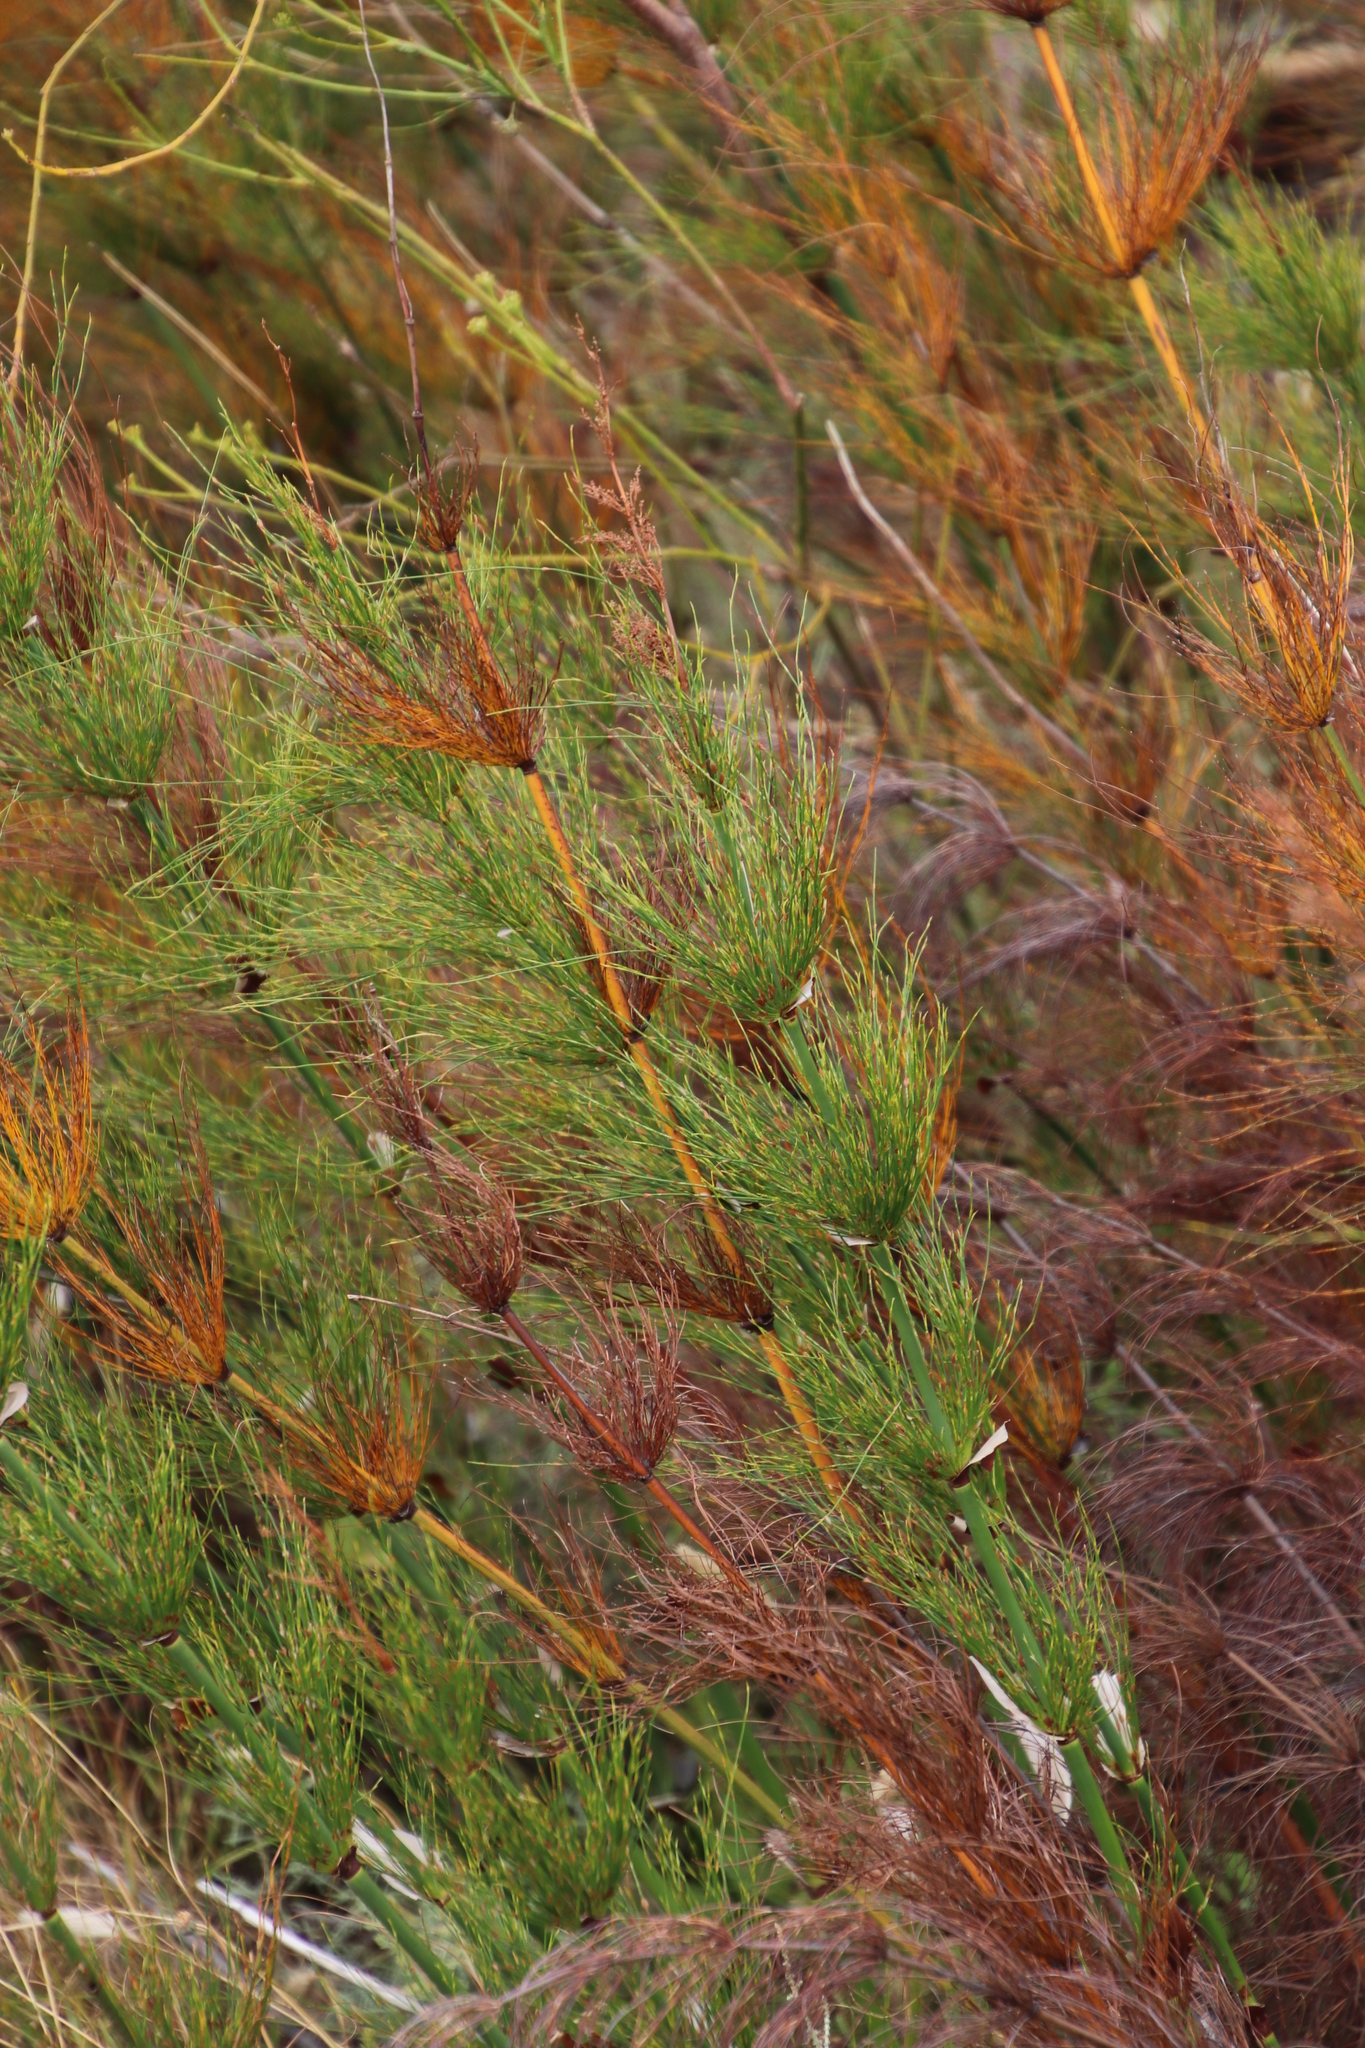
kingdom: Plantae
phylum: Tracheophyta
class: Liliopsida
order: Poales
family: Restionaceae
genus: Elegia
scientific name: Elegia capensis
